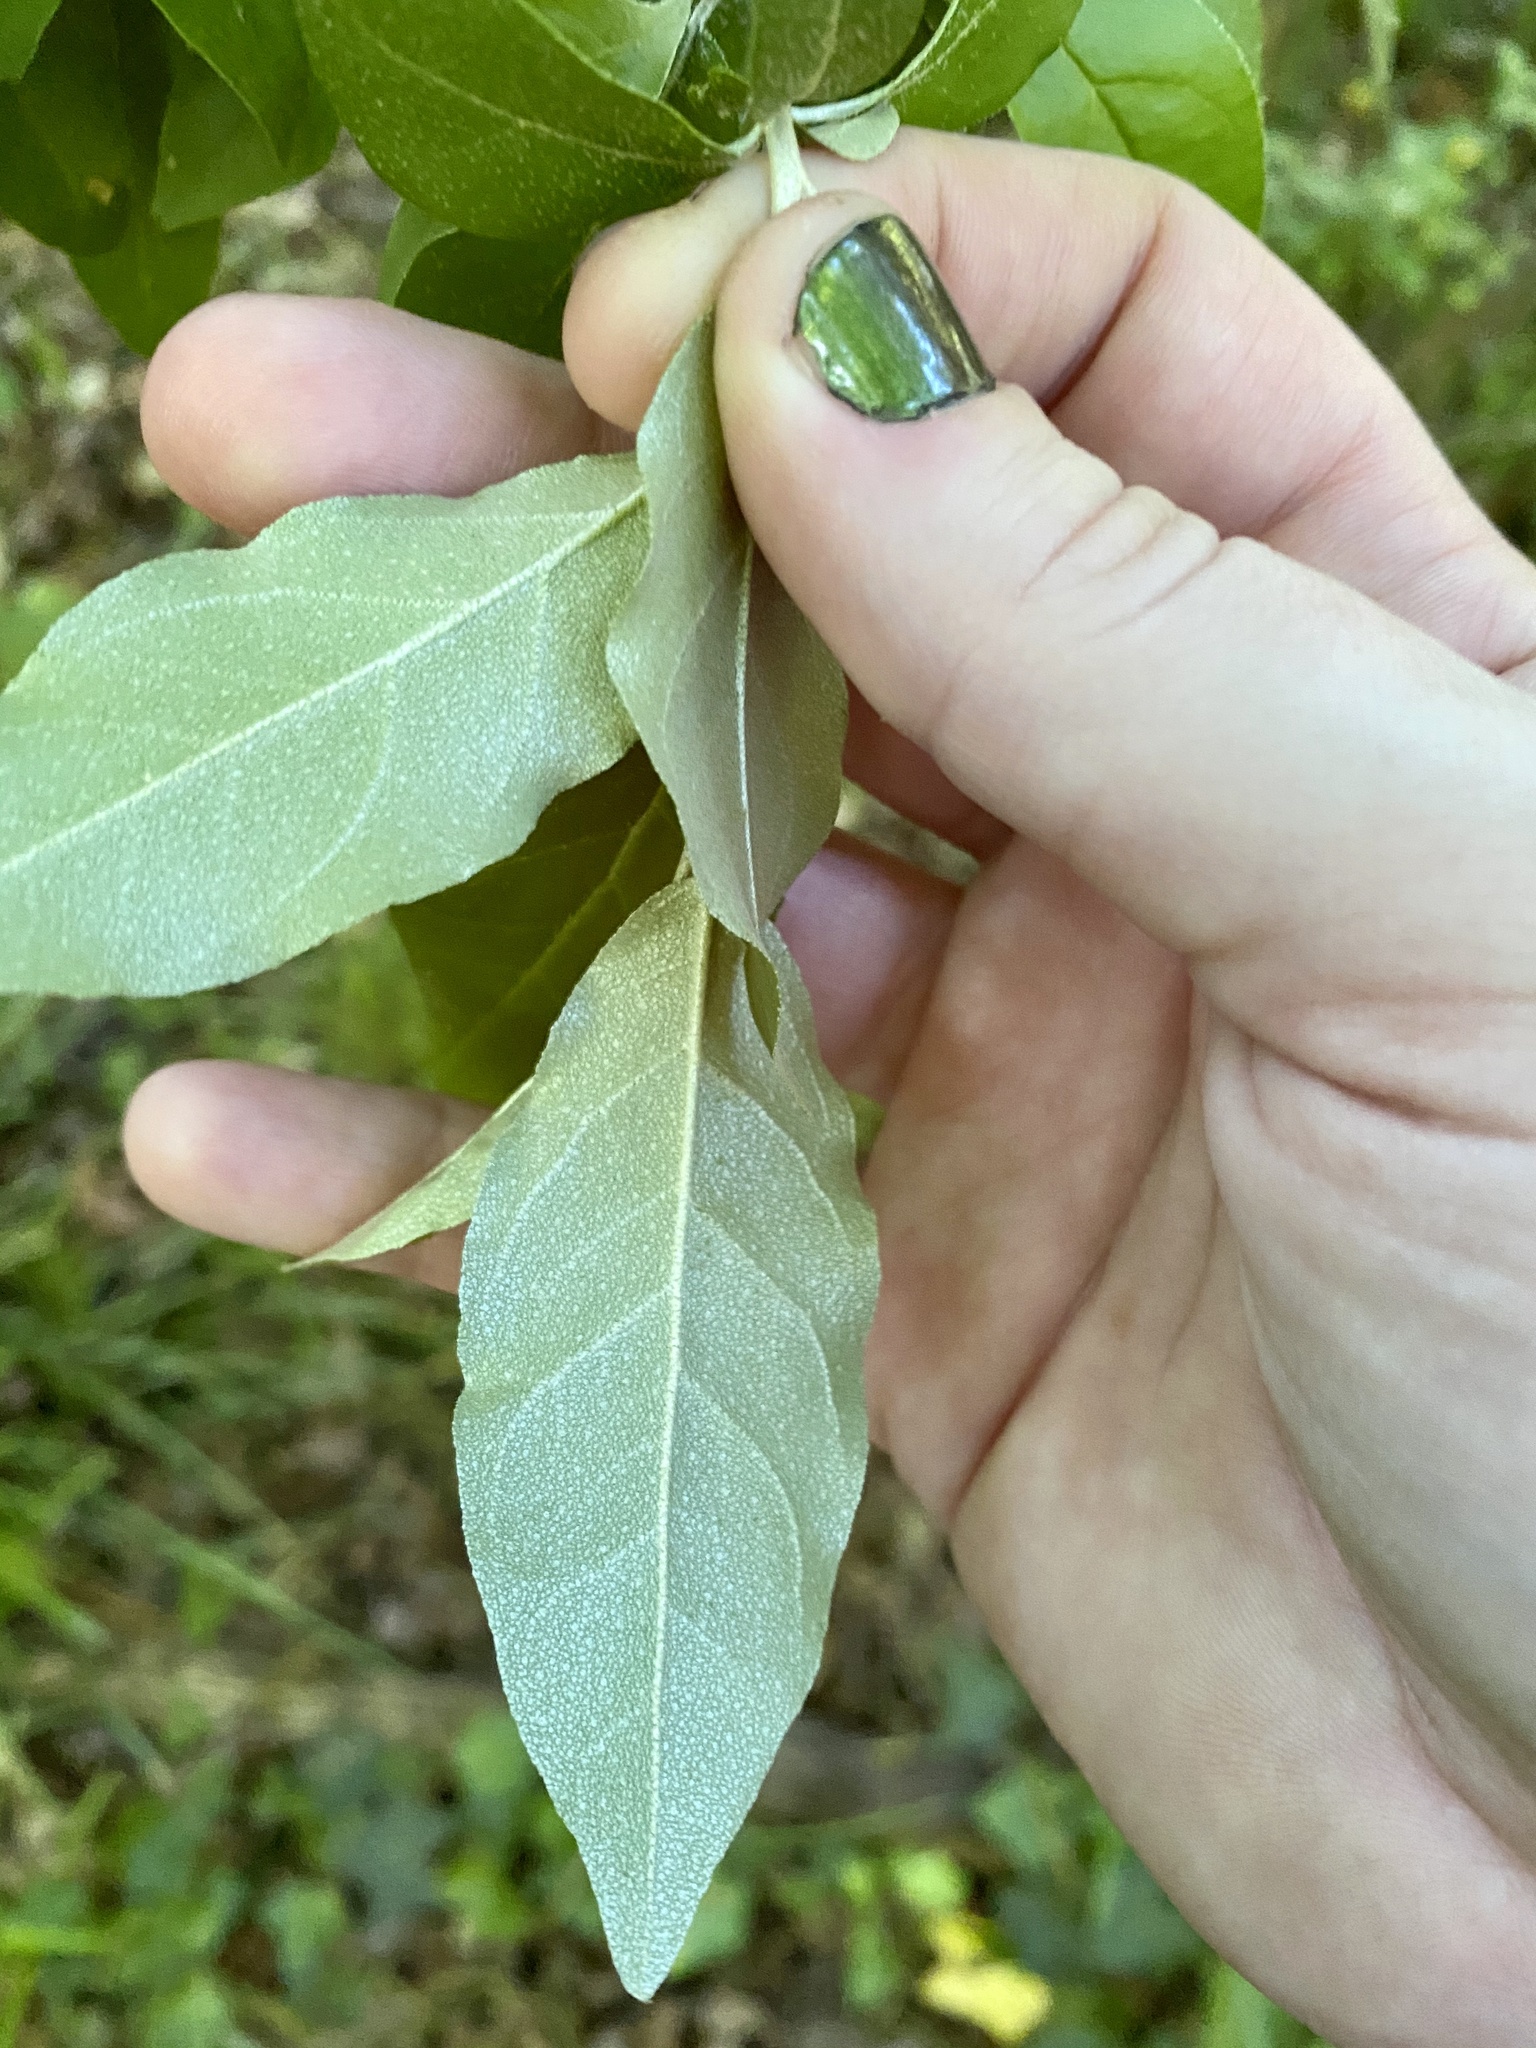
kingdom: Plantae
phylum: Tracheophyta
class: Magnoliopsida
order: Rosales
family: Elaeagnaceae
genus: Elaeagnus
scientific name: Elaeagnus umbellata
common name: Autumn olive
